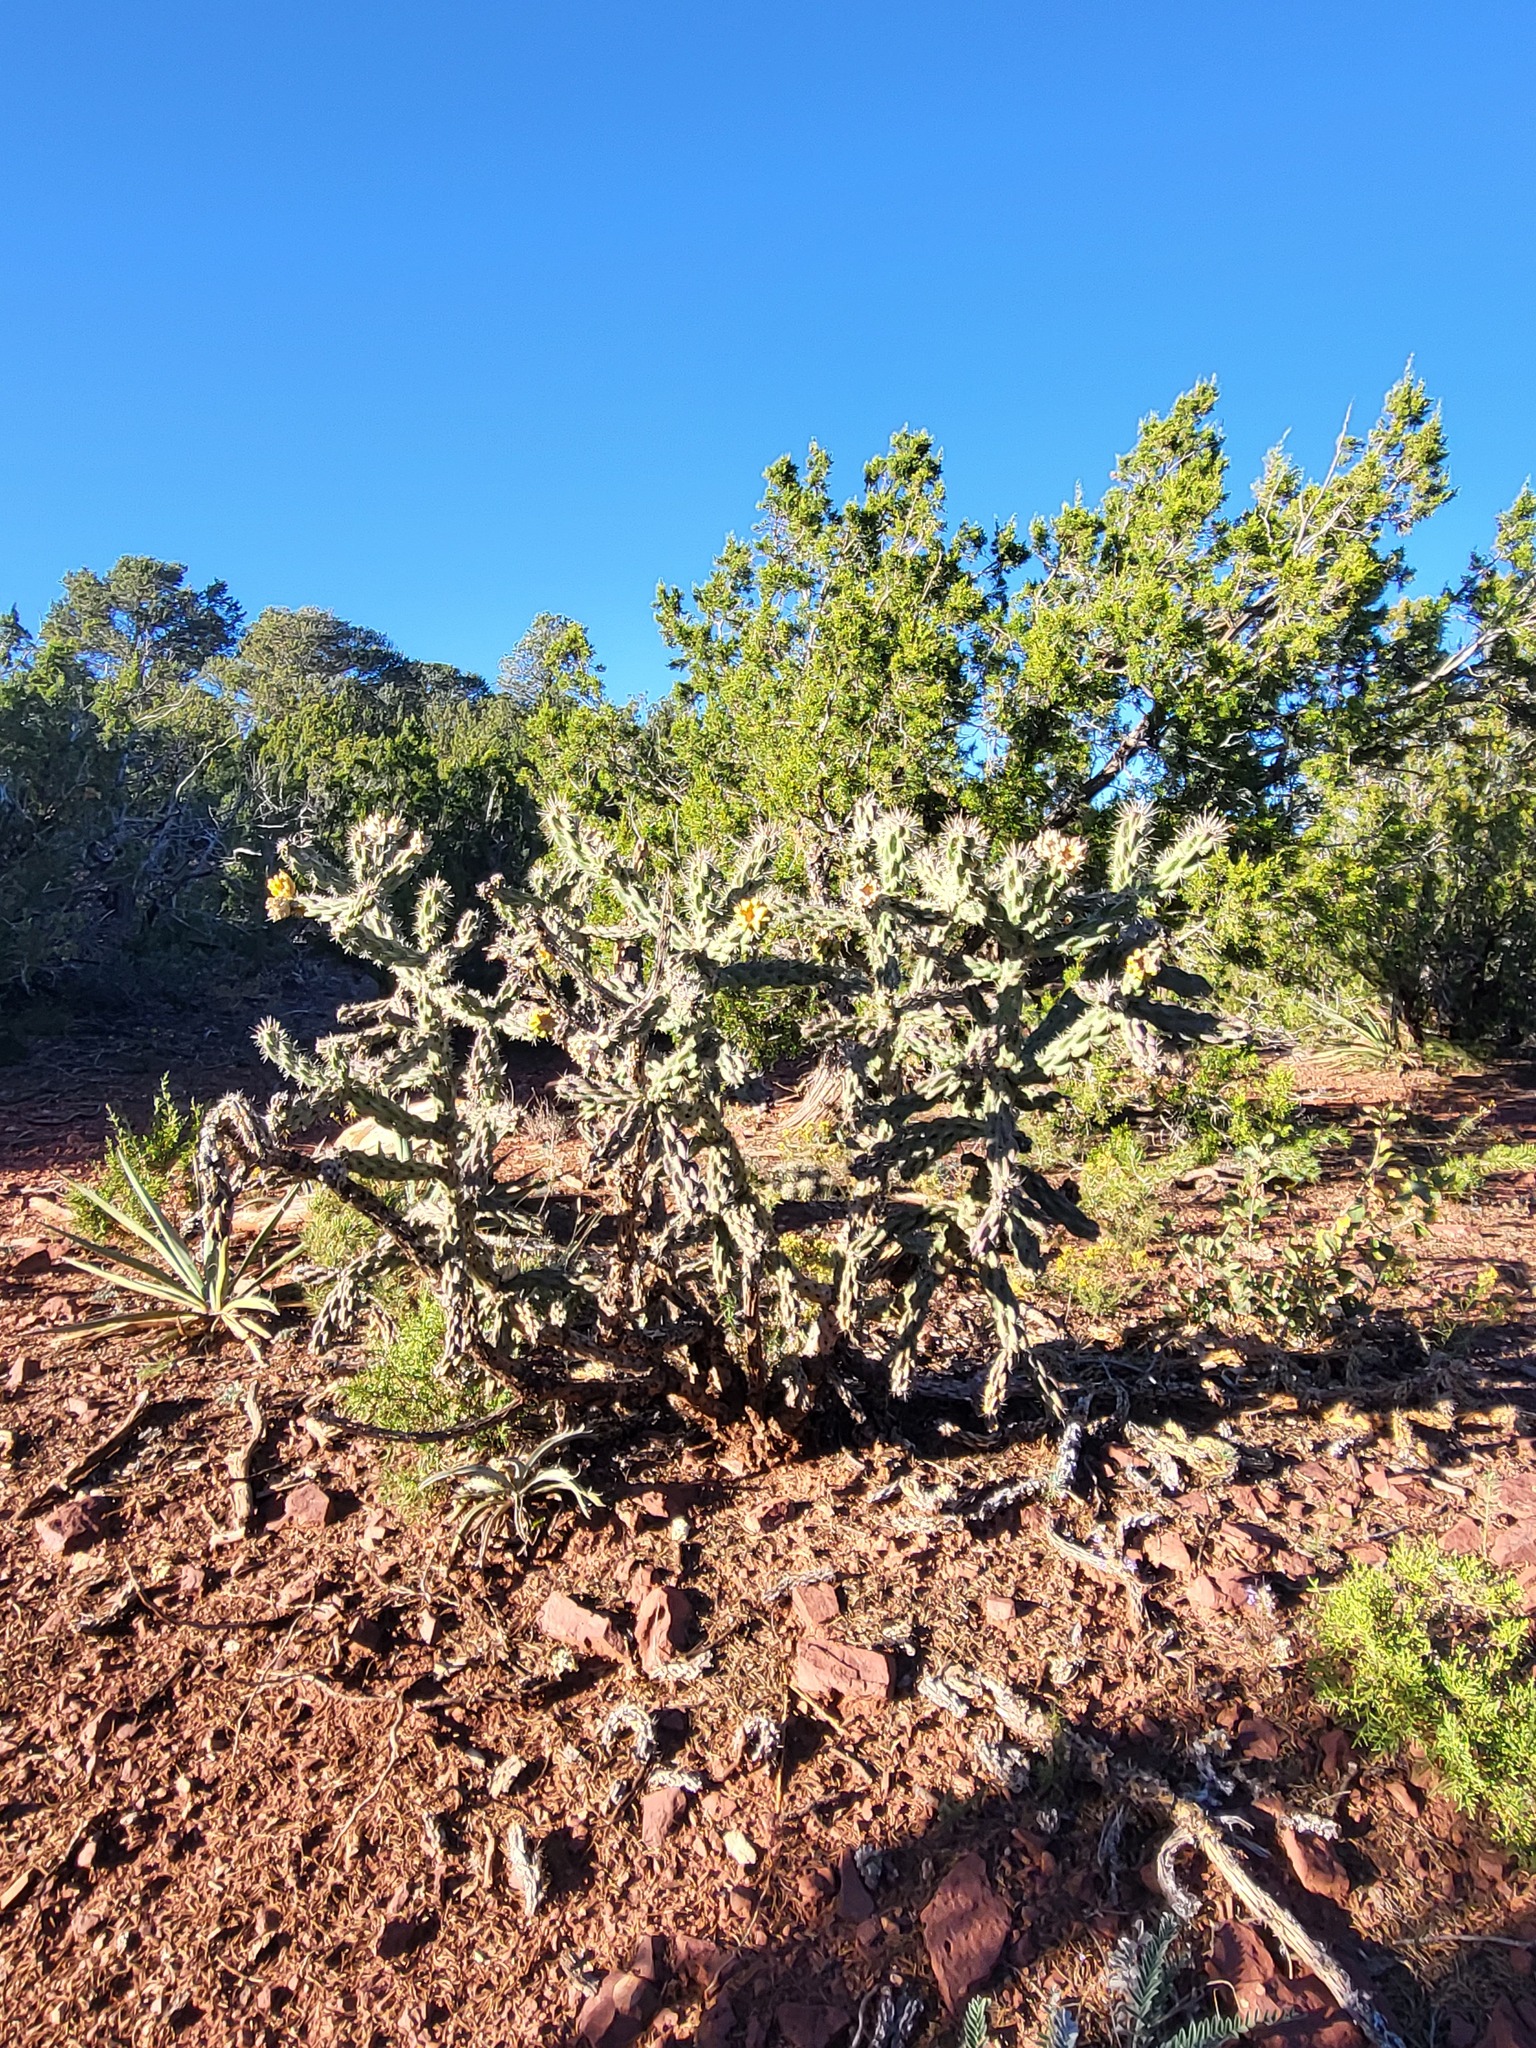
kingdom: Plantae
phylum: Tracheophyta
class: Magnoliopsida
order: Caryophyllales
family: Cactaceae
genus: Cylindropuntia
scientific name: Cylindropuntia imbricata
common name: Candelabrum cactus
